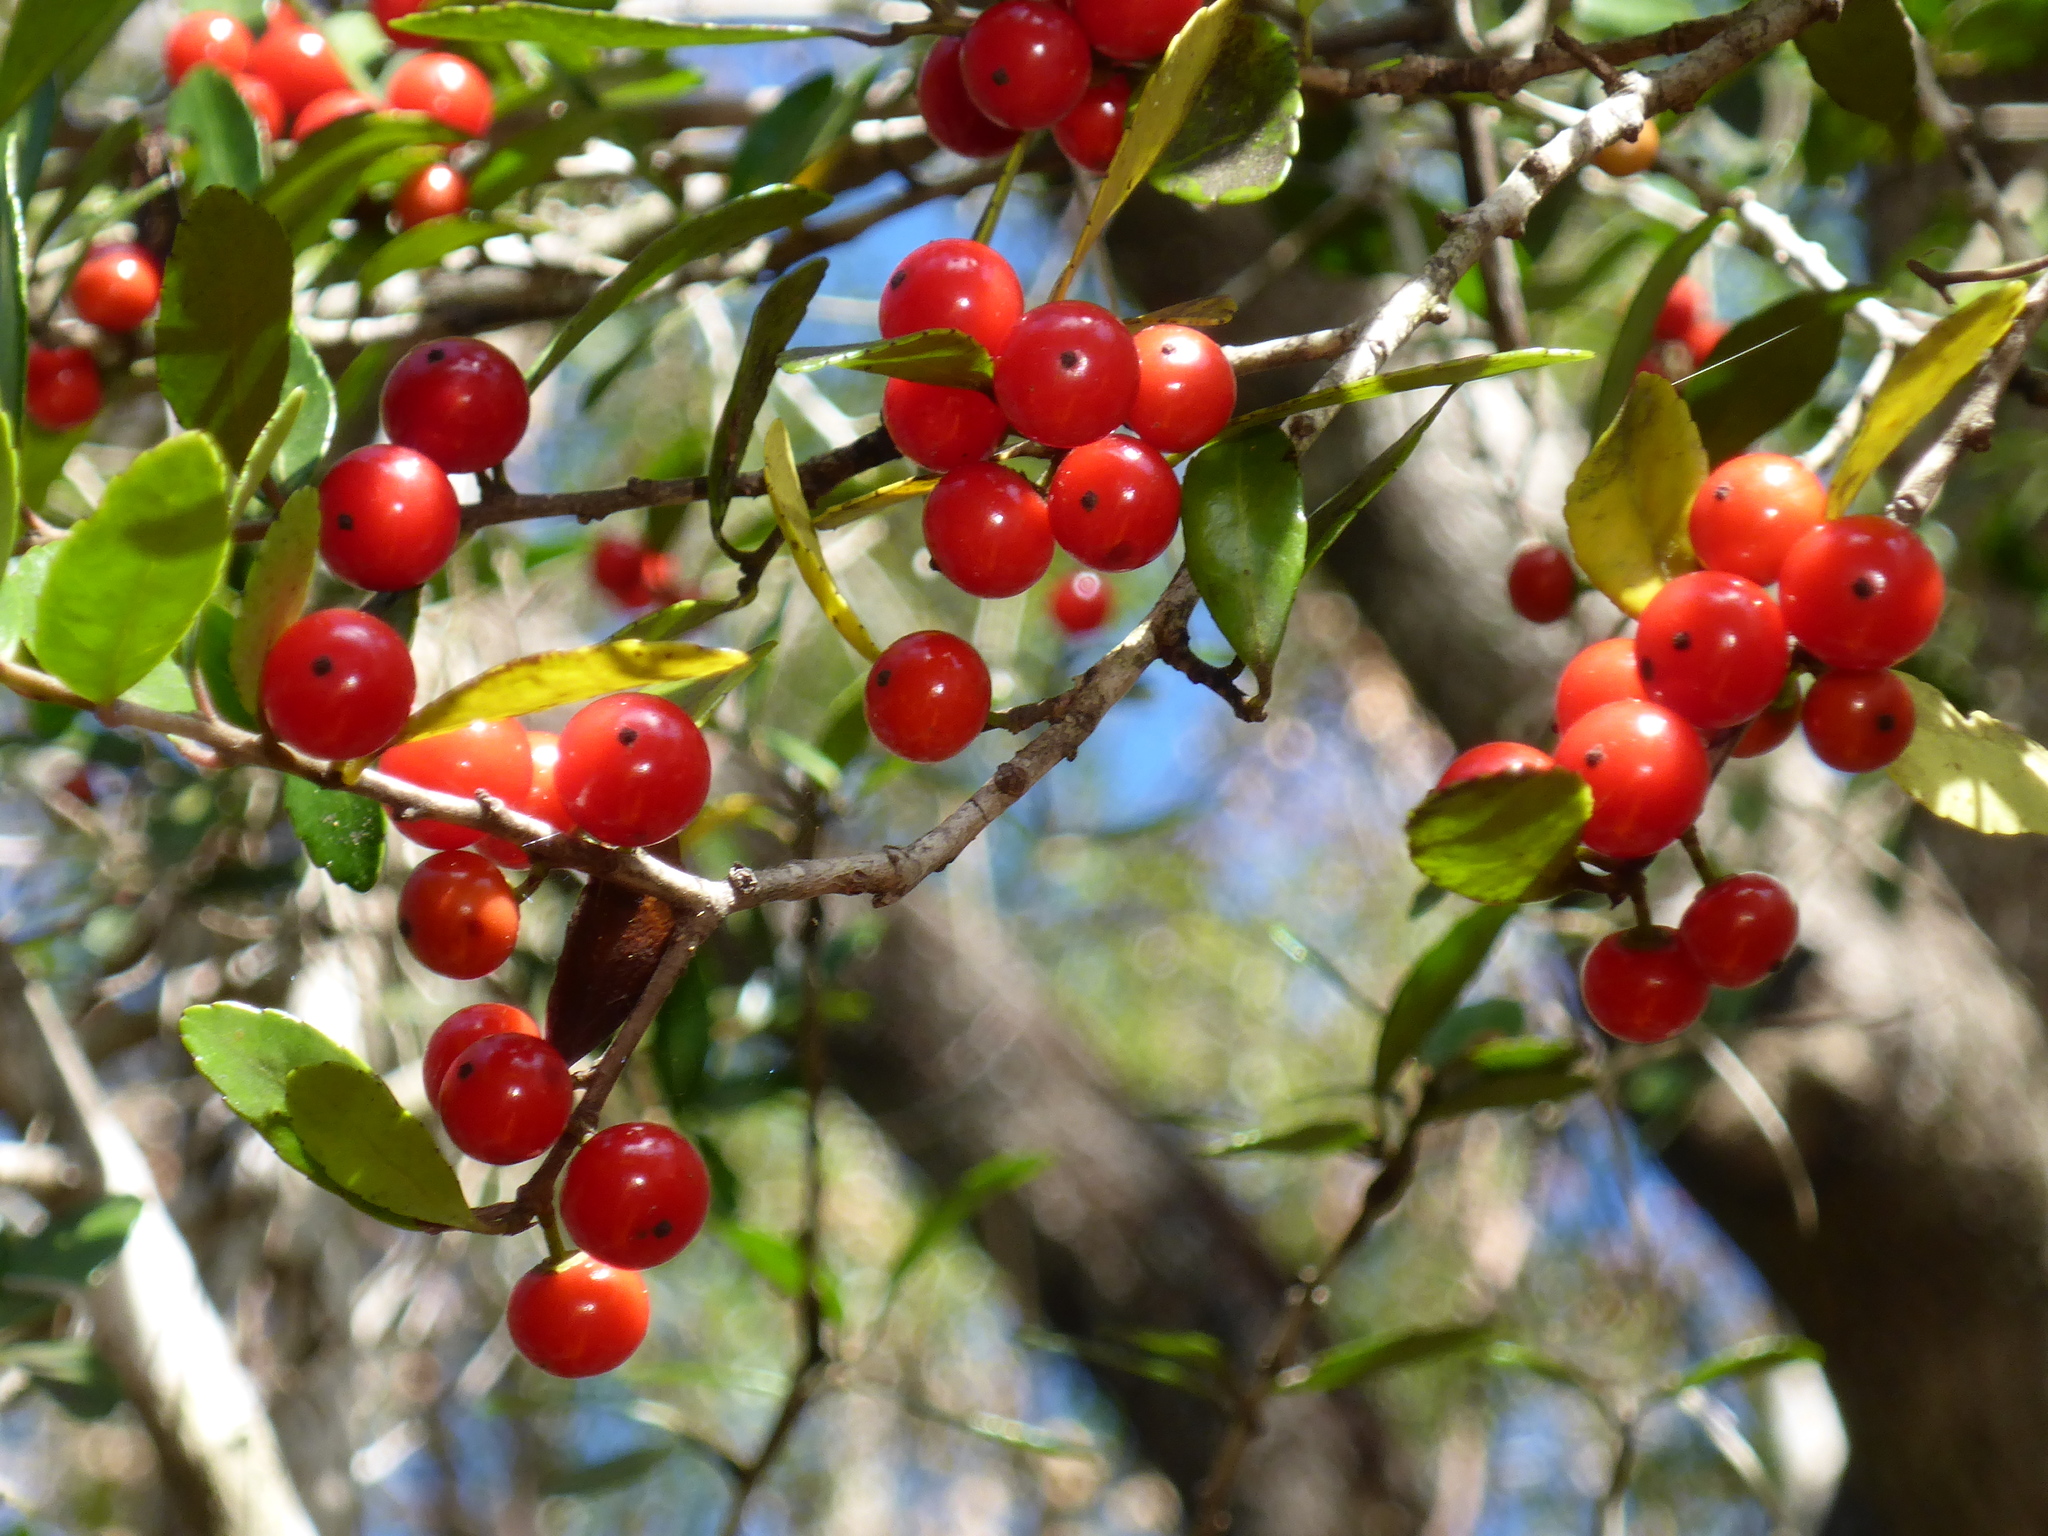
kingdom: Plantae
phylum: Tracheophyta
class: Magnoliopsida
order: Aquifoliales
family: Aquifoliaceae
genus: Ilex
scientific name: Ilex vomitoria
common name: Yaupon holly
